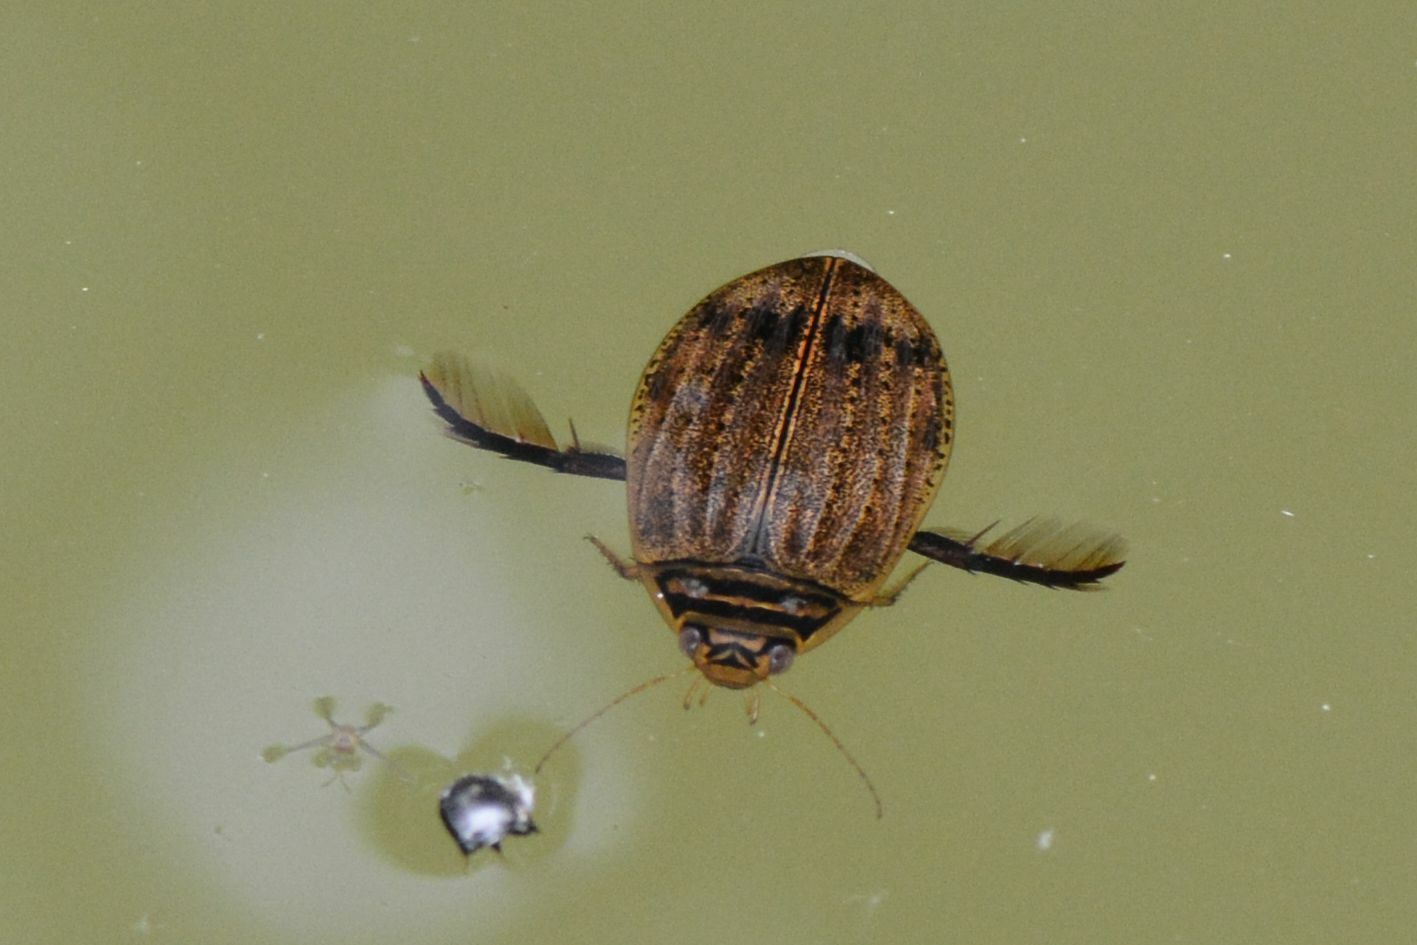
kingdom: Animalia
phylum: Arthropoda
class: Insecta
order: Coleoptera
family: Dytiscidae
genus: Acilius
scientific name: Acilius sulcatus
